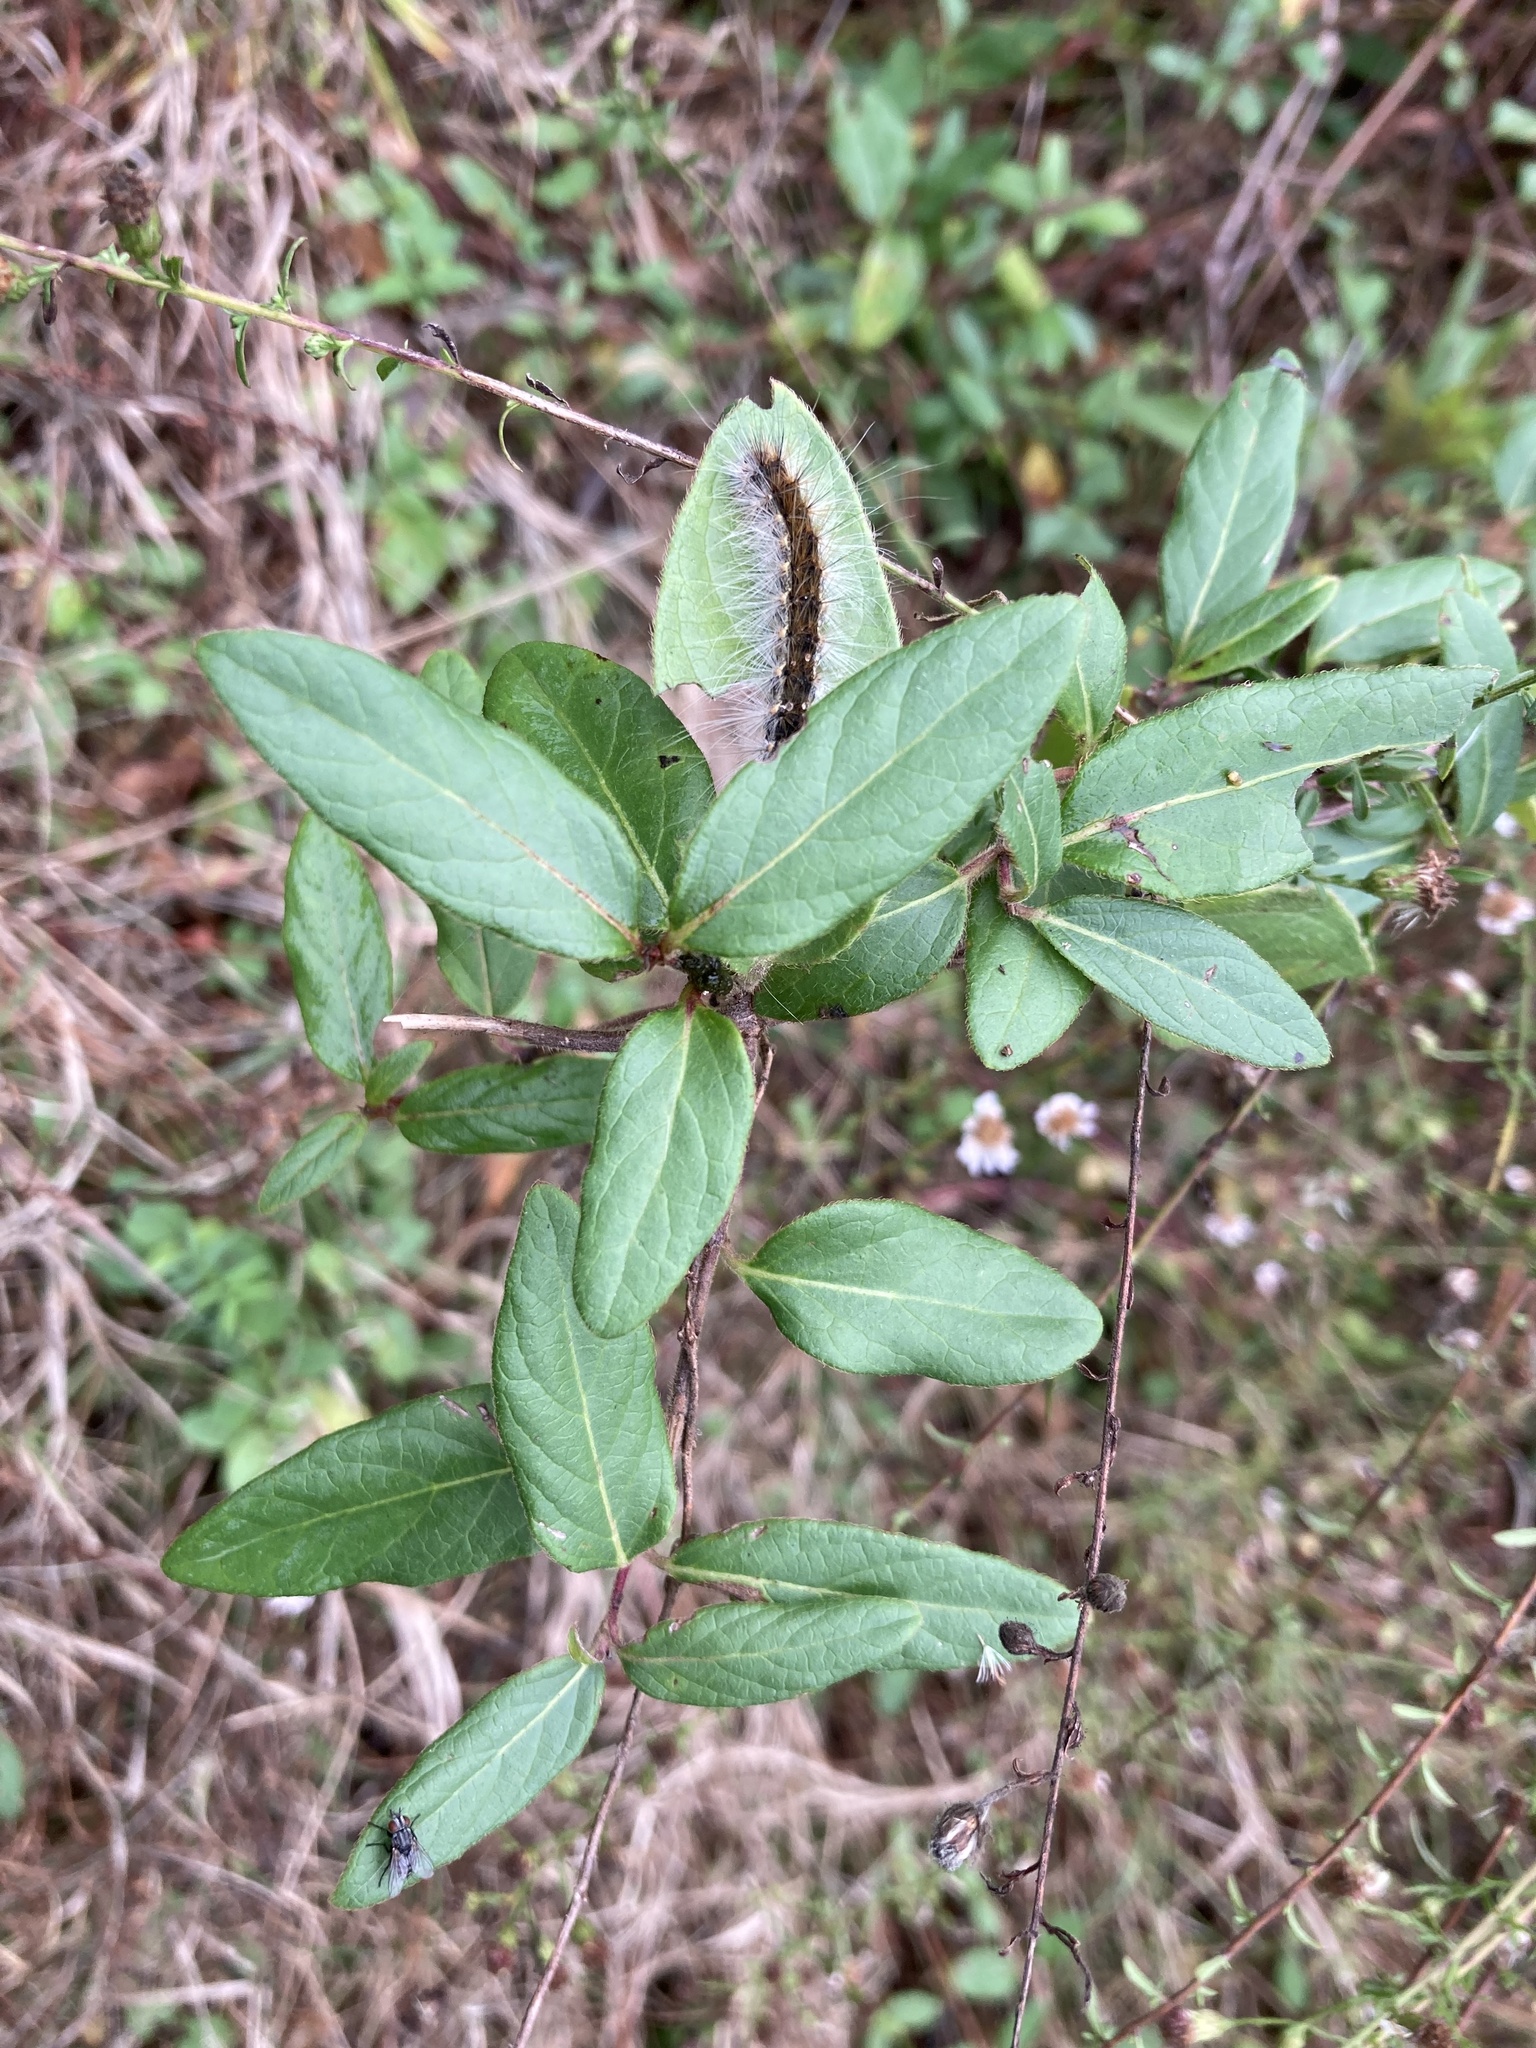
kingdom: Plantae
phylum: Tracheophyta
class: Magnoliopsida
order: Dipsacales
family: Caprifoliaceae
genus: Lonicera
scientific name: Lonicera japonica
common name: Japanese honeysuckle
